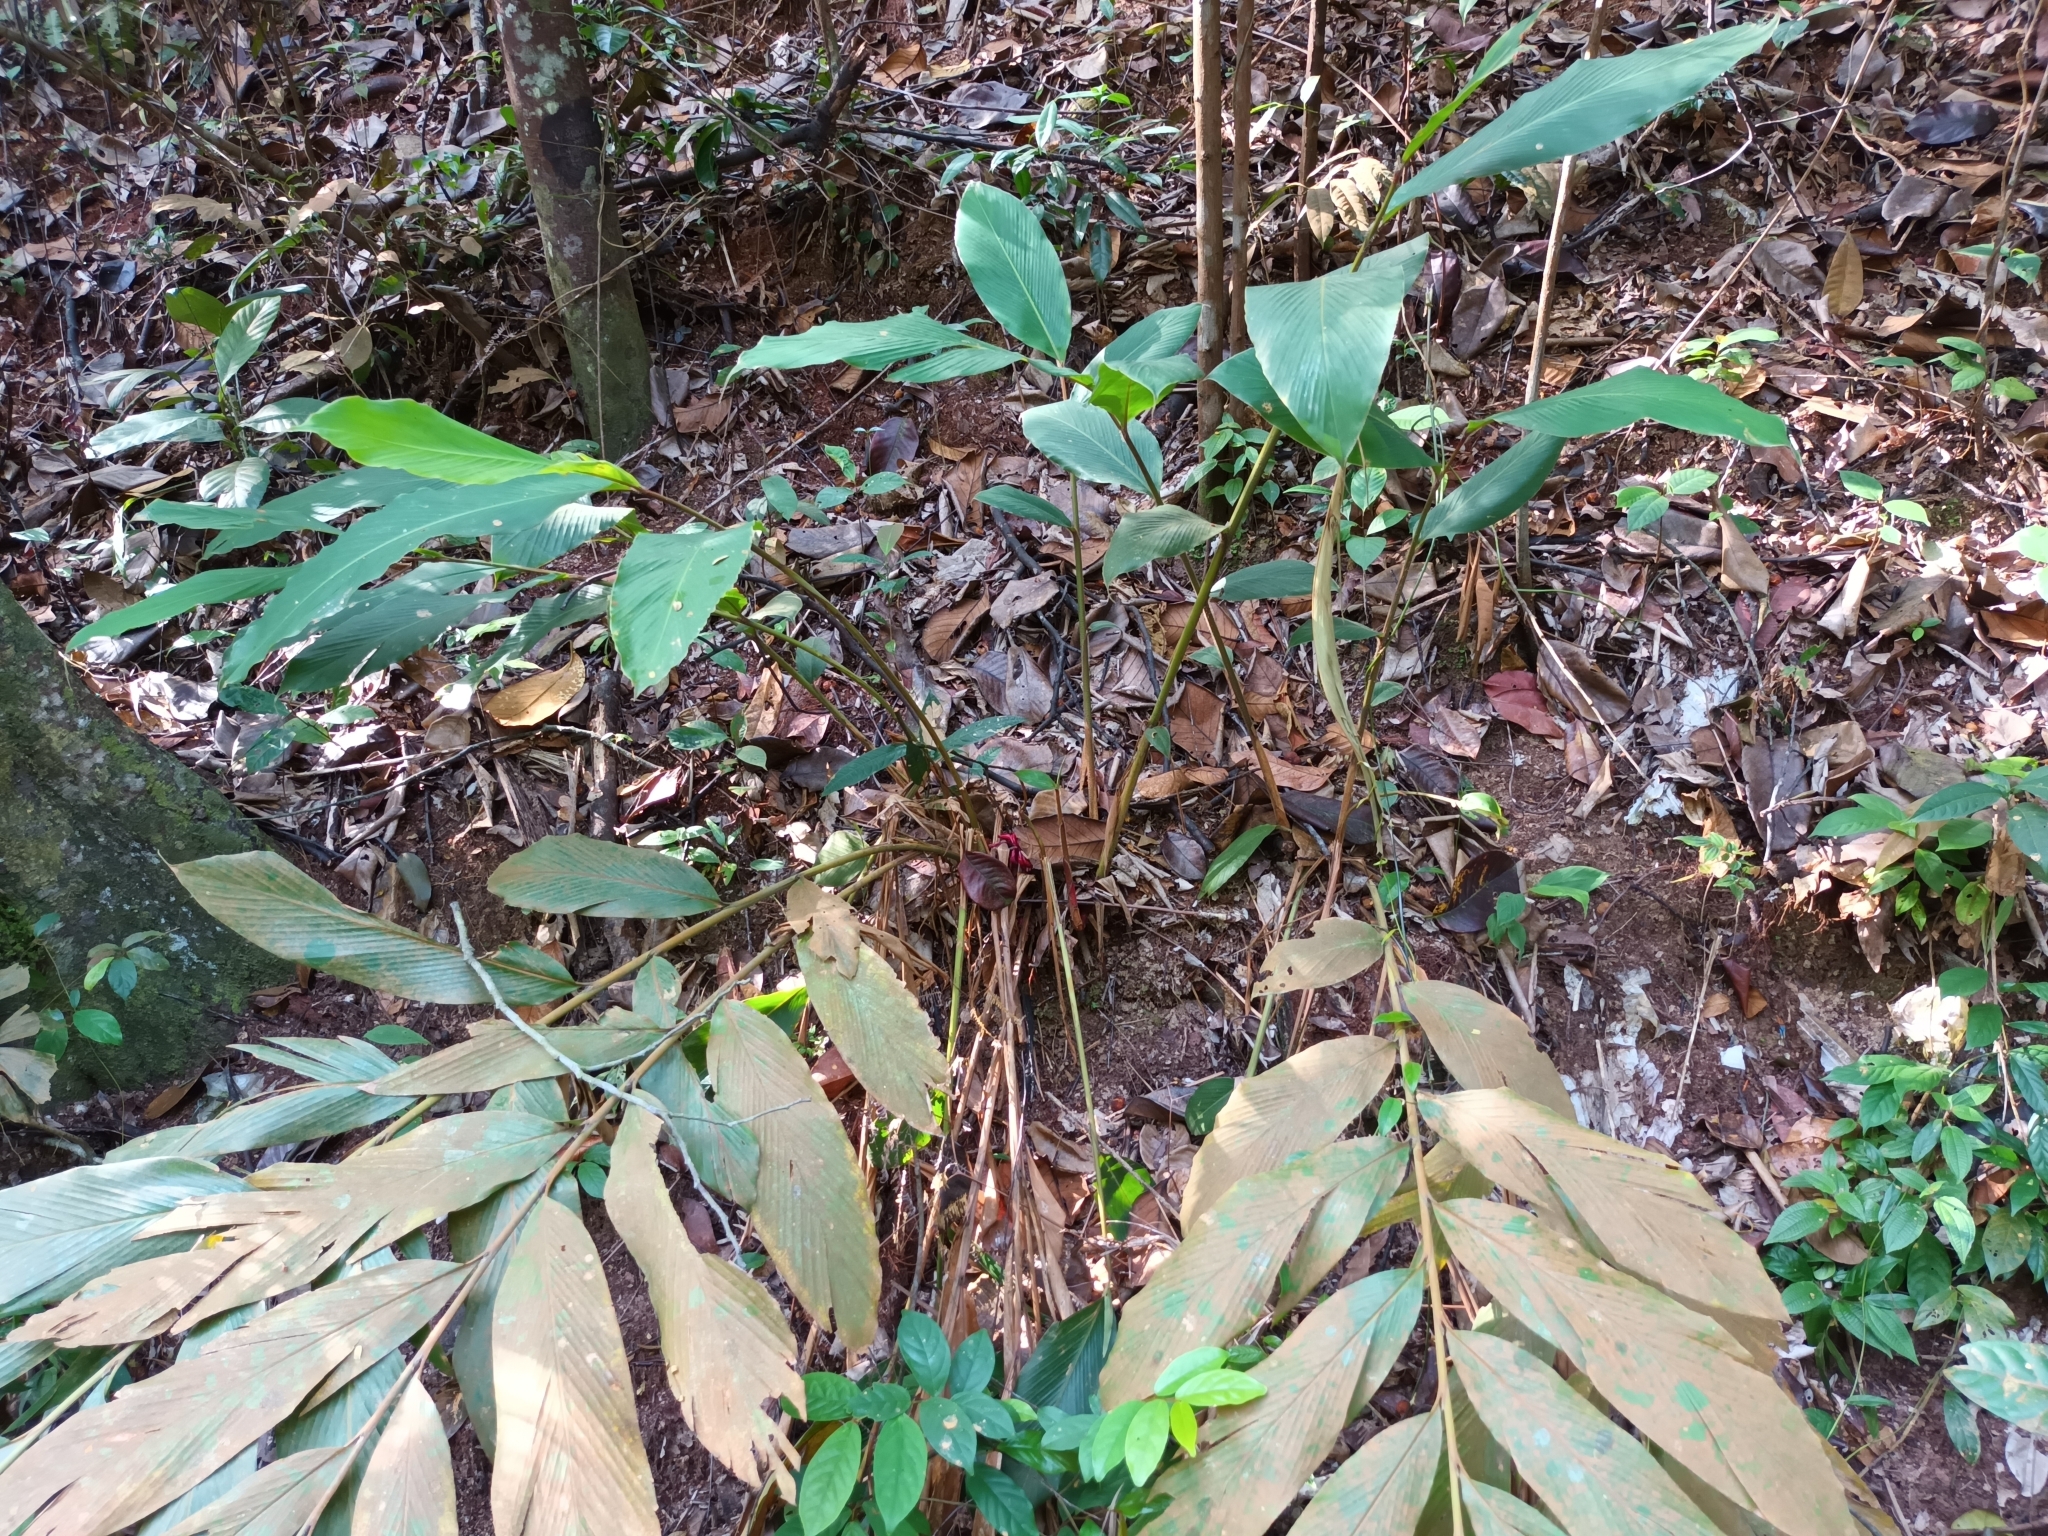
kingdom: Plantae
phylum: Tracheophyta
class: Liliopsida
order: Zingiberales
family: Zingiberaceae
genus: Hornstedtia
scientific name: Hornstedtia scyphifera
